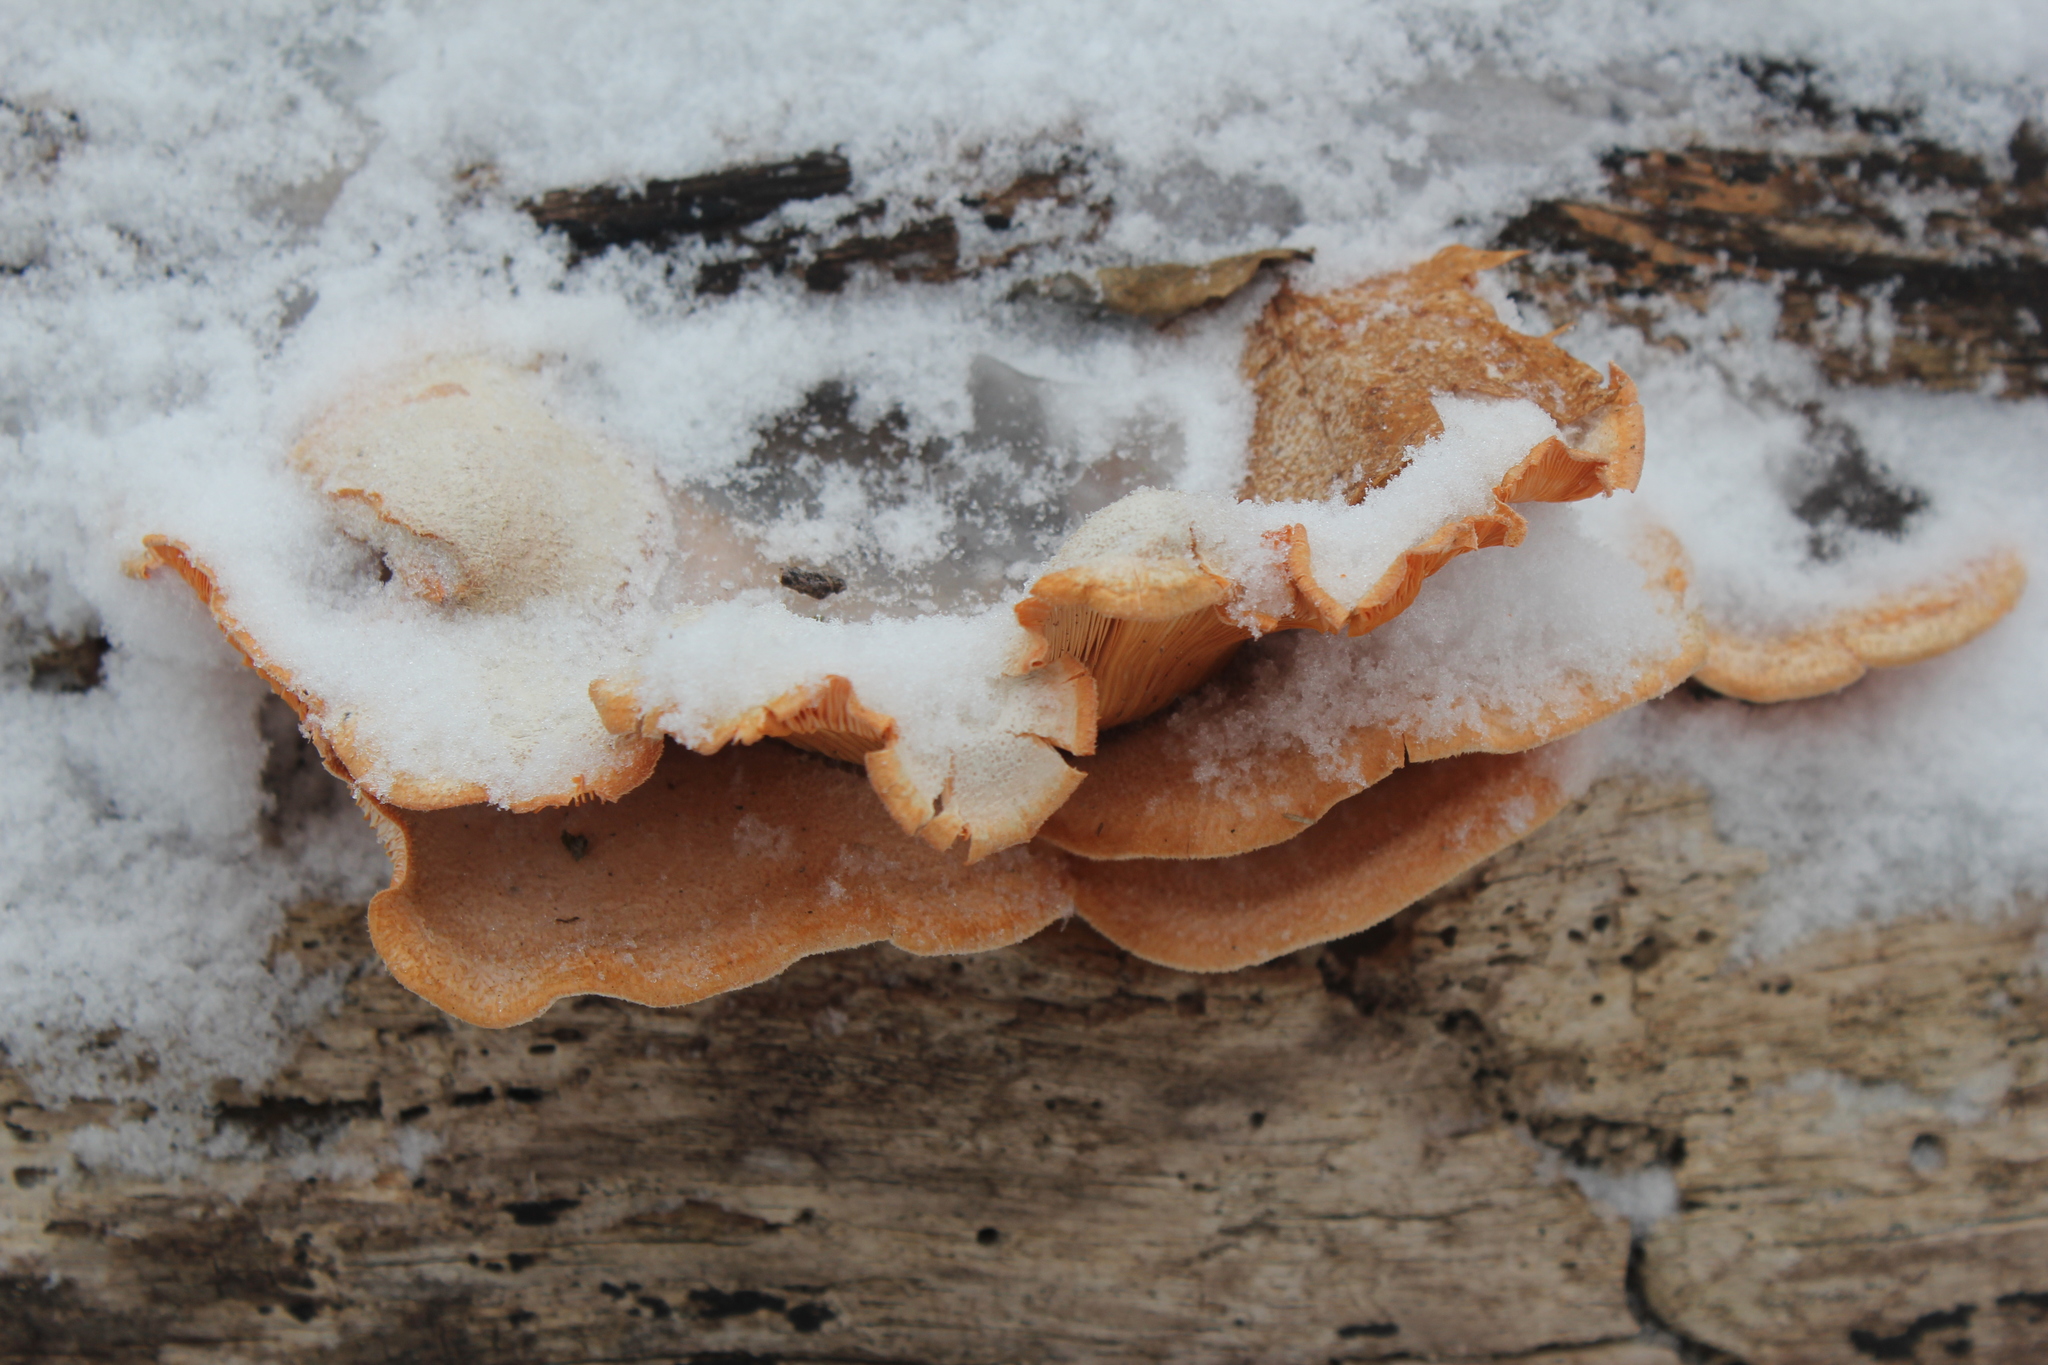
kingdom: Fungi
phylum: Basidiomycota
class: Agaricomycetes
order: Agaricales
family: Phyllotopsidaceae
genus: Phyllotopsis
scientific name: Phyllotopsis nidulans
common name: Orange mock oyster
